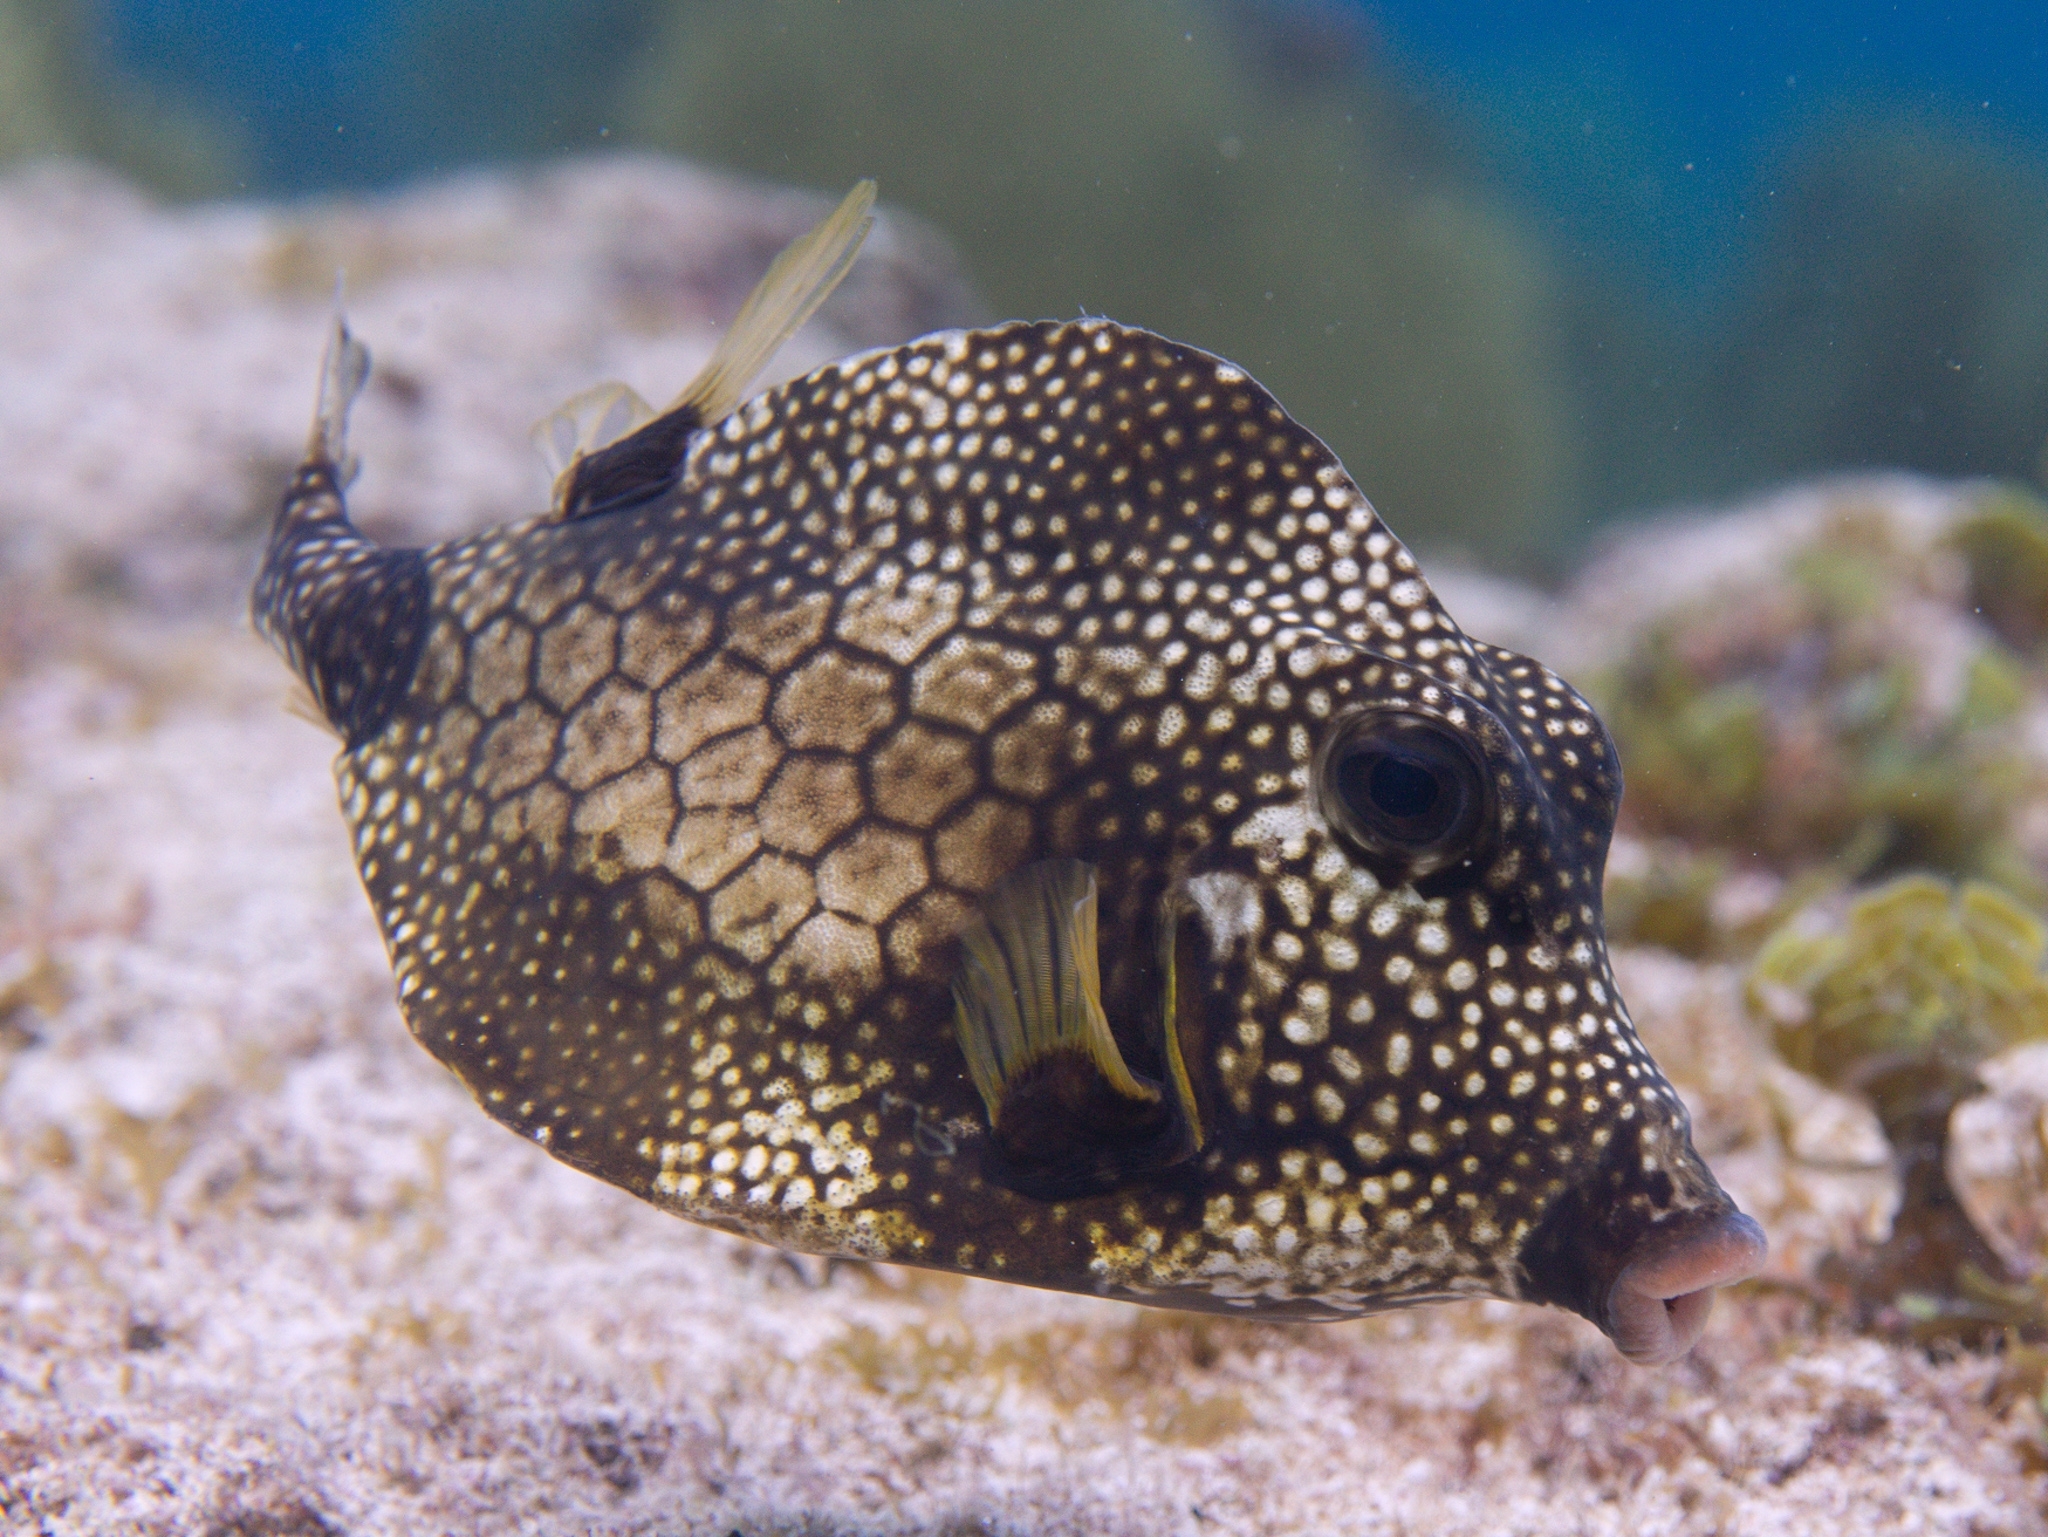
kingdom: Animalia
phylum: Chordata
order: Tetraodontiformes
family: Ostraciidae
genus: Lactophrys
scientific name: Lactophrys triqueter
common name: Smooth trunkfish
